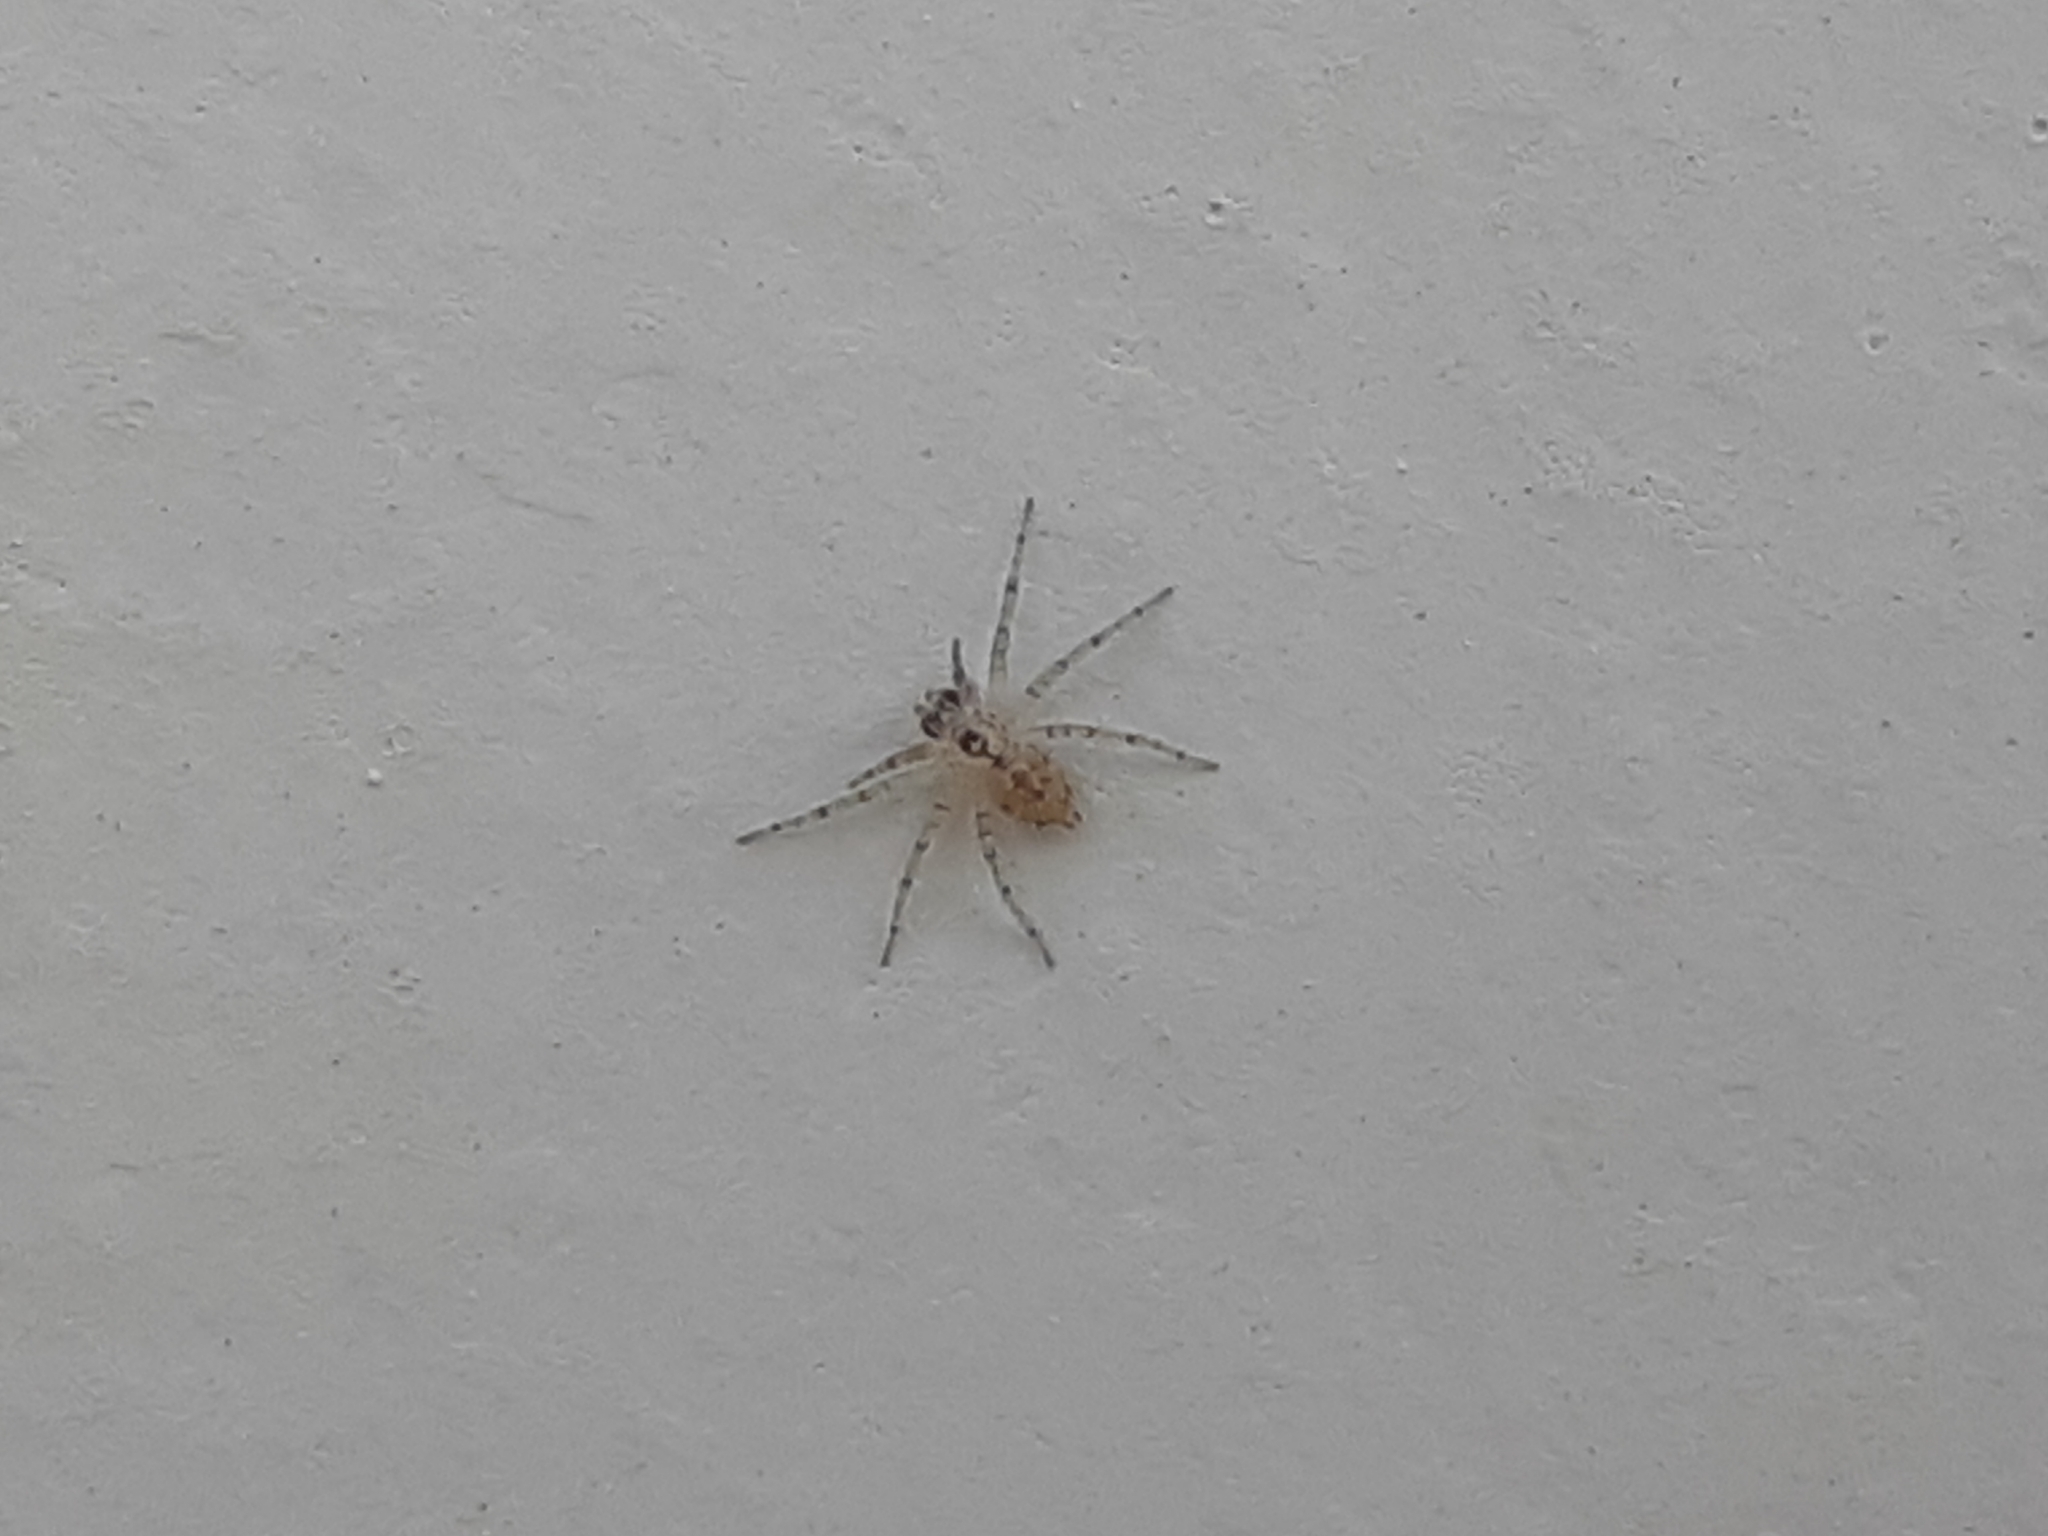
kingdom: Animalia
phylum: Arthropoda
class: Arachnida
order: Araneae
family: Oecobiidae
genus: Oecobius
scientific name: Oecobius navus
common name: Flatmesh weaver
